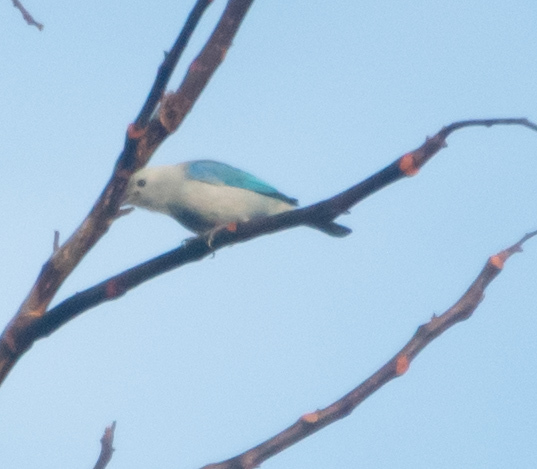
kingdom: Animalia
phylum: Chordata
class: Aves
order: Passeriformes
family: Thraupidae
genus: Thraupis
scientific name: Thraupis episcopus
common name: Blue-grey tanager
